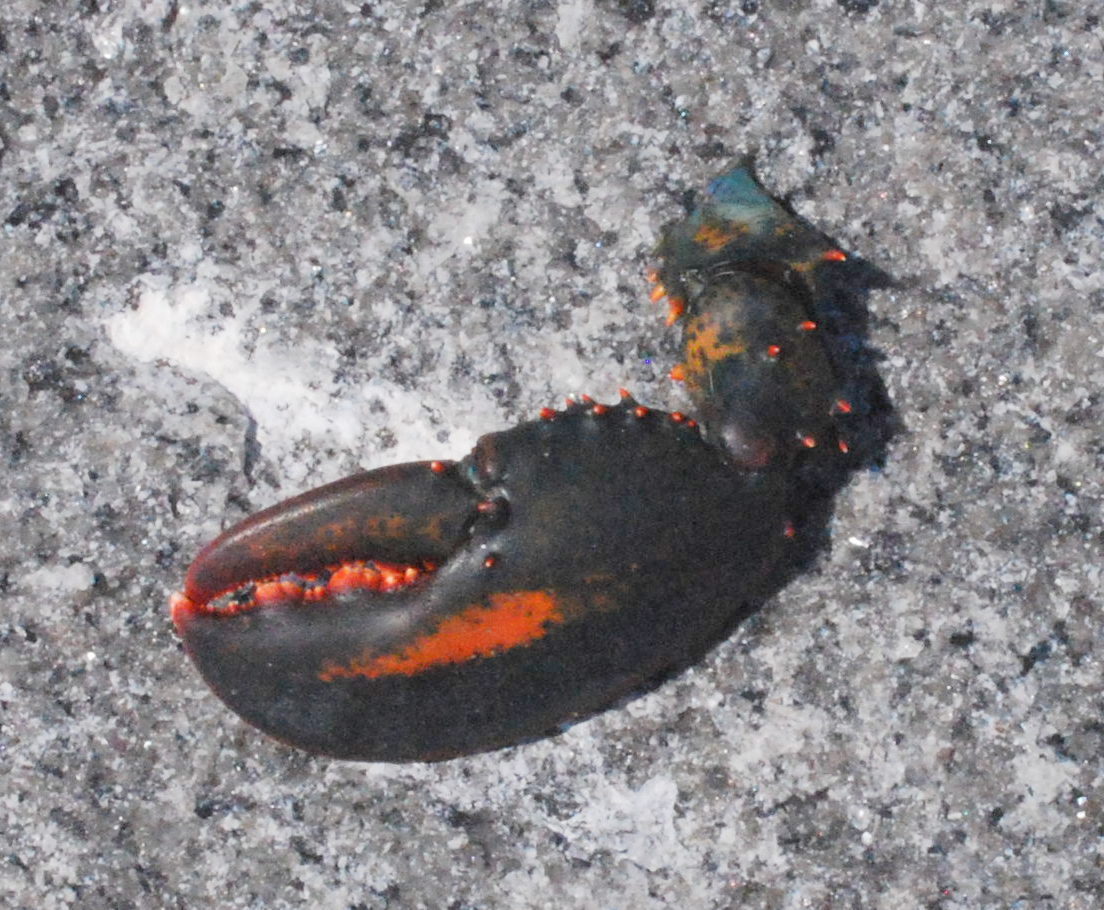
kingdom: Animalia
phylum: Arthropoda
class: Malacostraca
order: Decapoda
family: Nephropidae
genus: Homarus
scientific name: Homarus americanus
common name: American lobster
